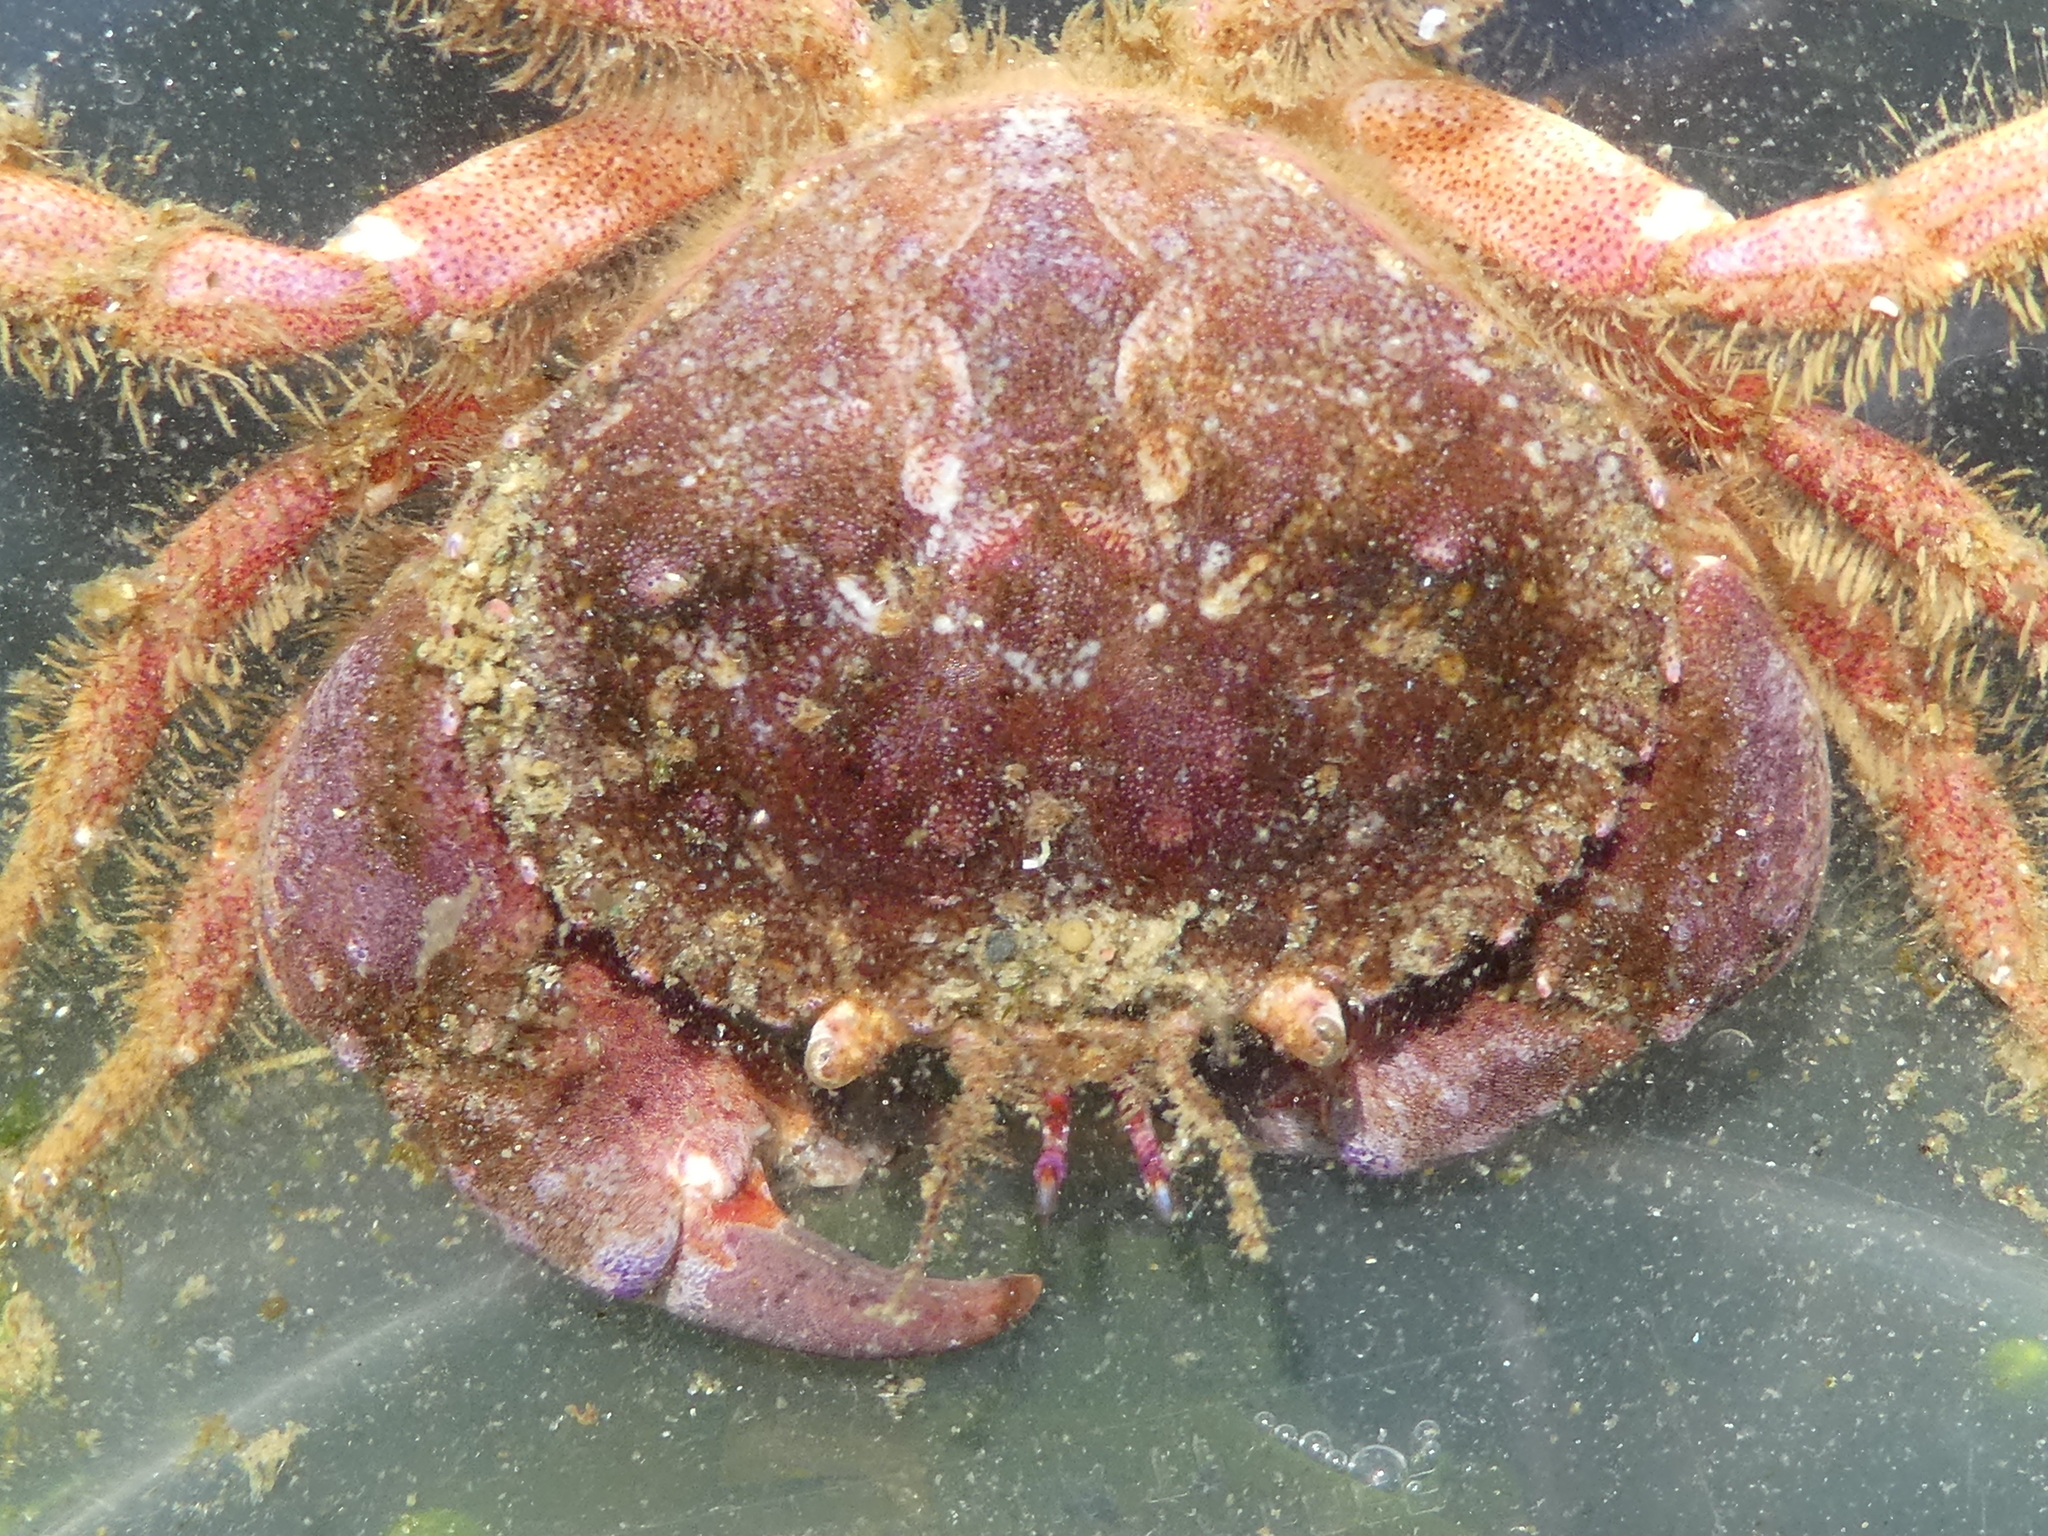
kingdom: Animalia
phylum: Arthropoda
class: Malacostraca
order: Decapoda
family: Cancridae
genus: Glebocarcinus
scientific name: Glebocarcinus oregonensis
